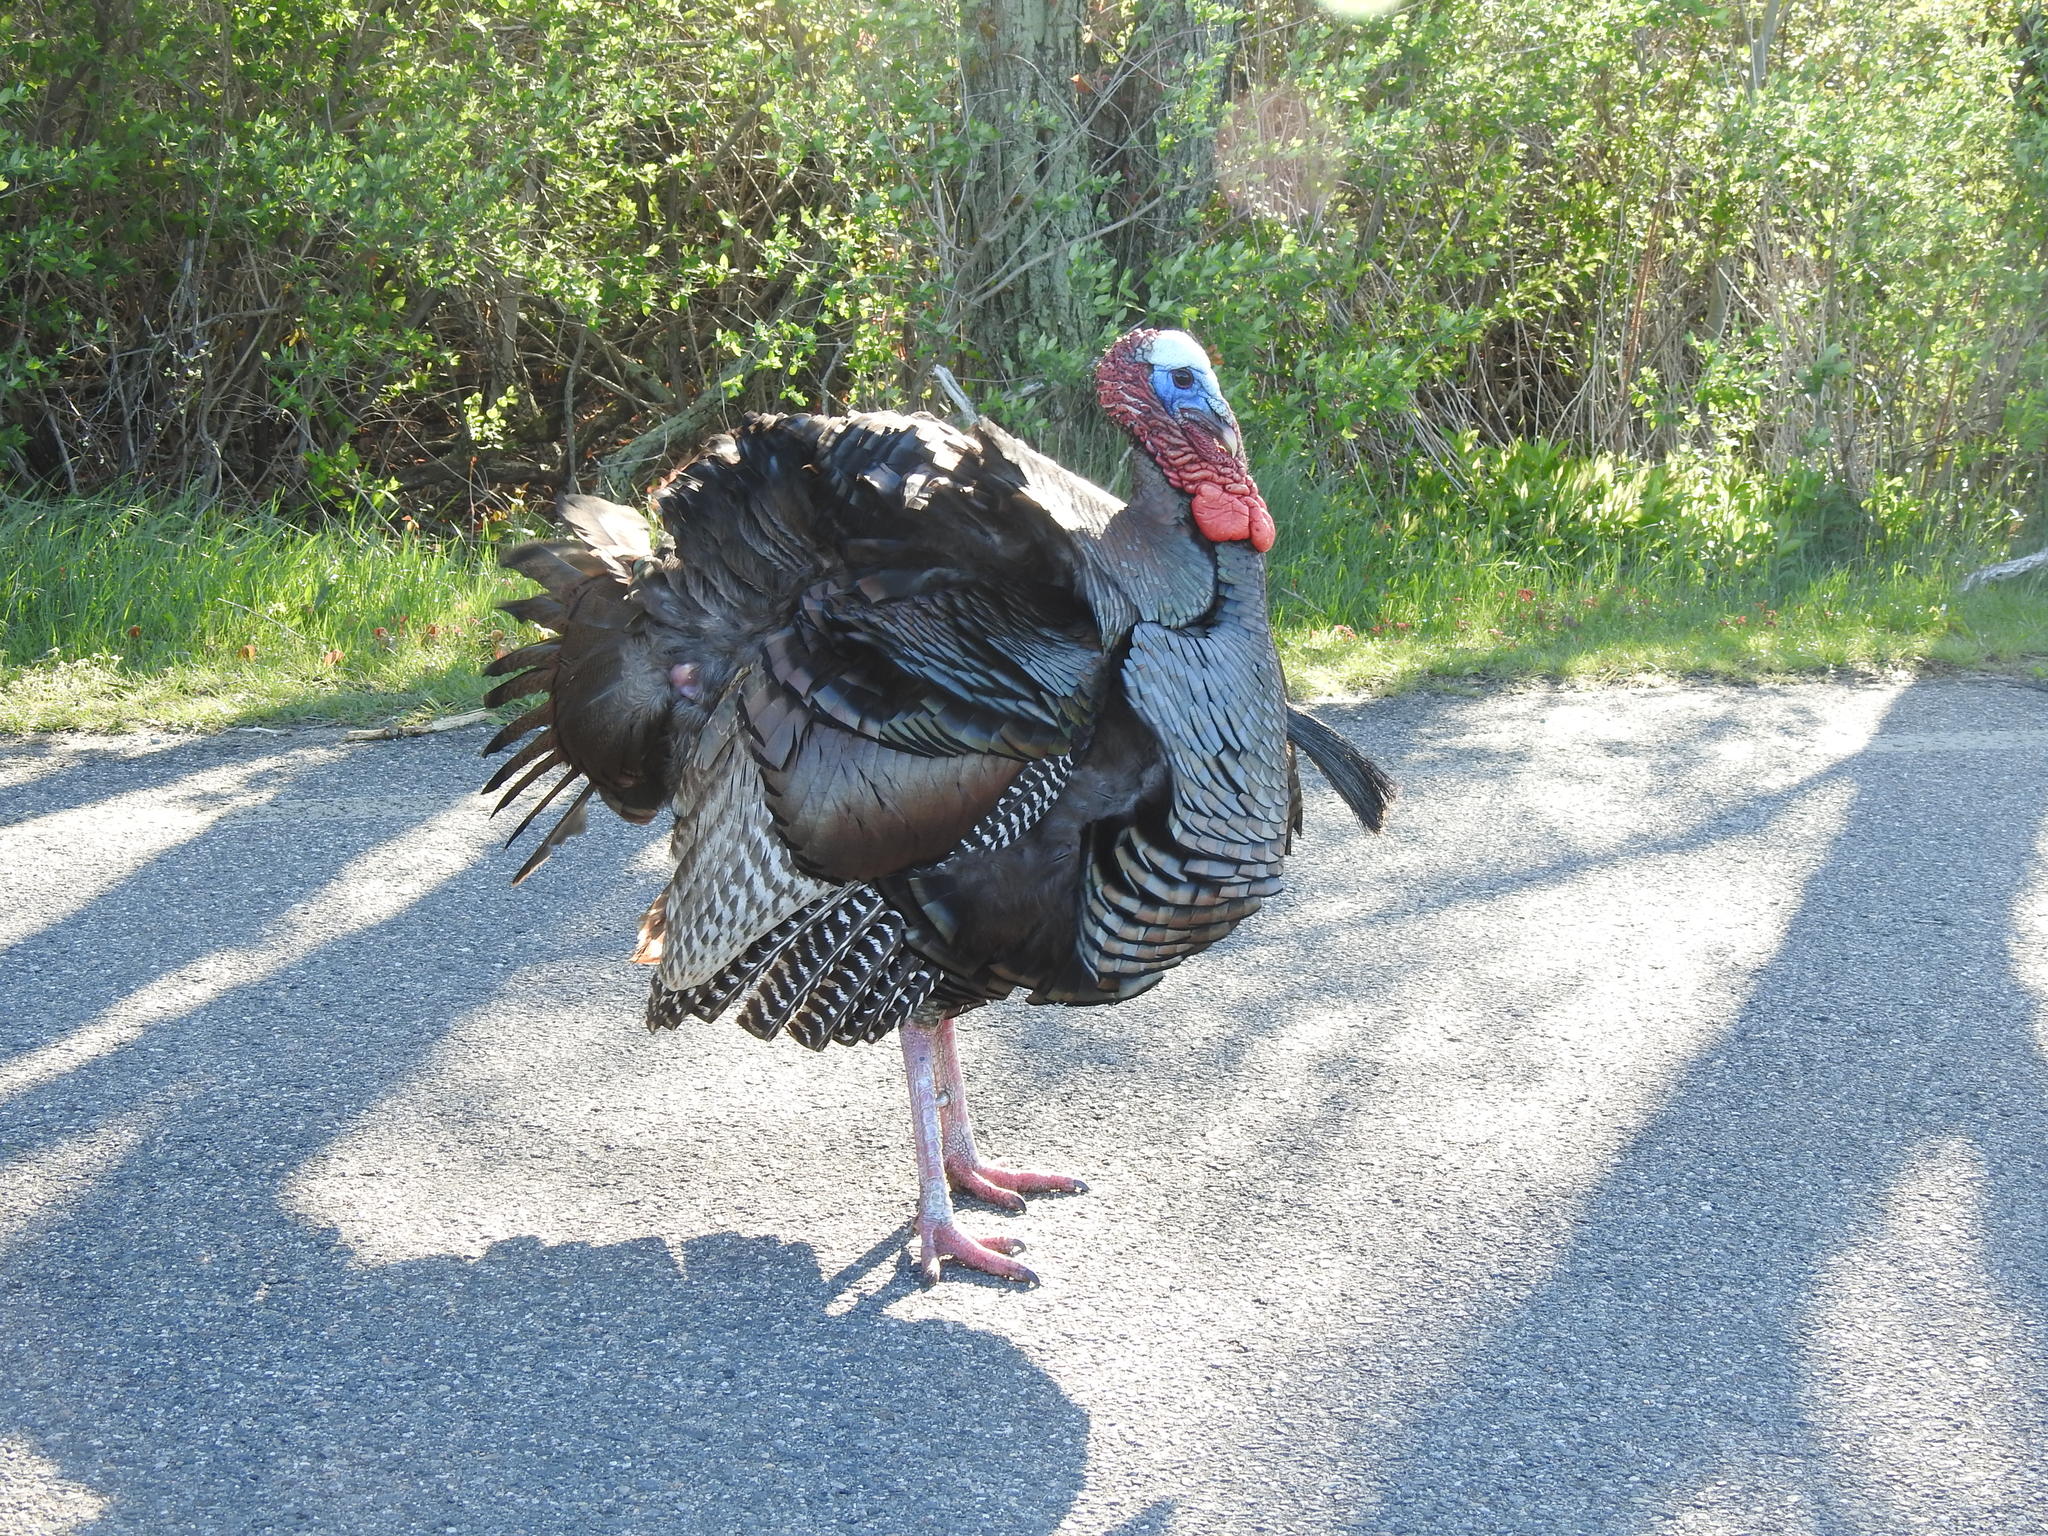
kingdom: Animalia
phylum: Chordata
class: Aves
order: Galliformes
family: Phasianidae
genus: Meleagris
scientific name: Meleagris gallopavo
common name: Wild turkey
